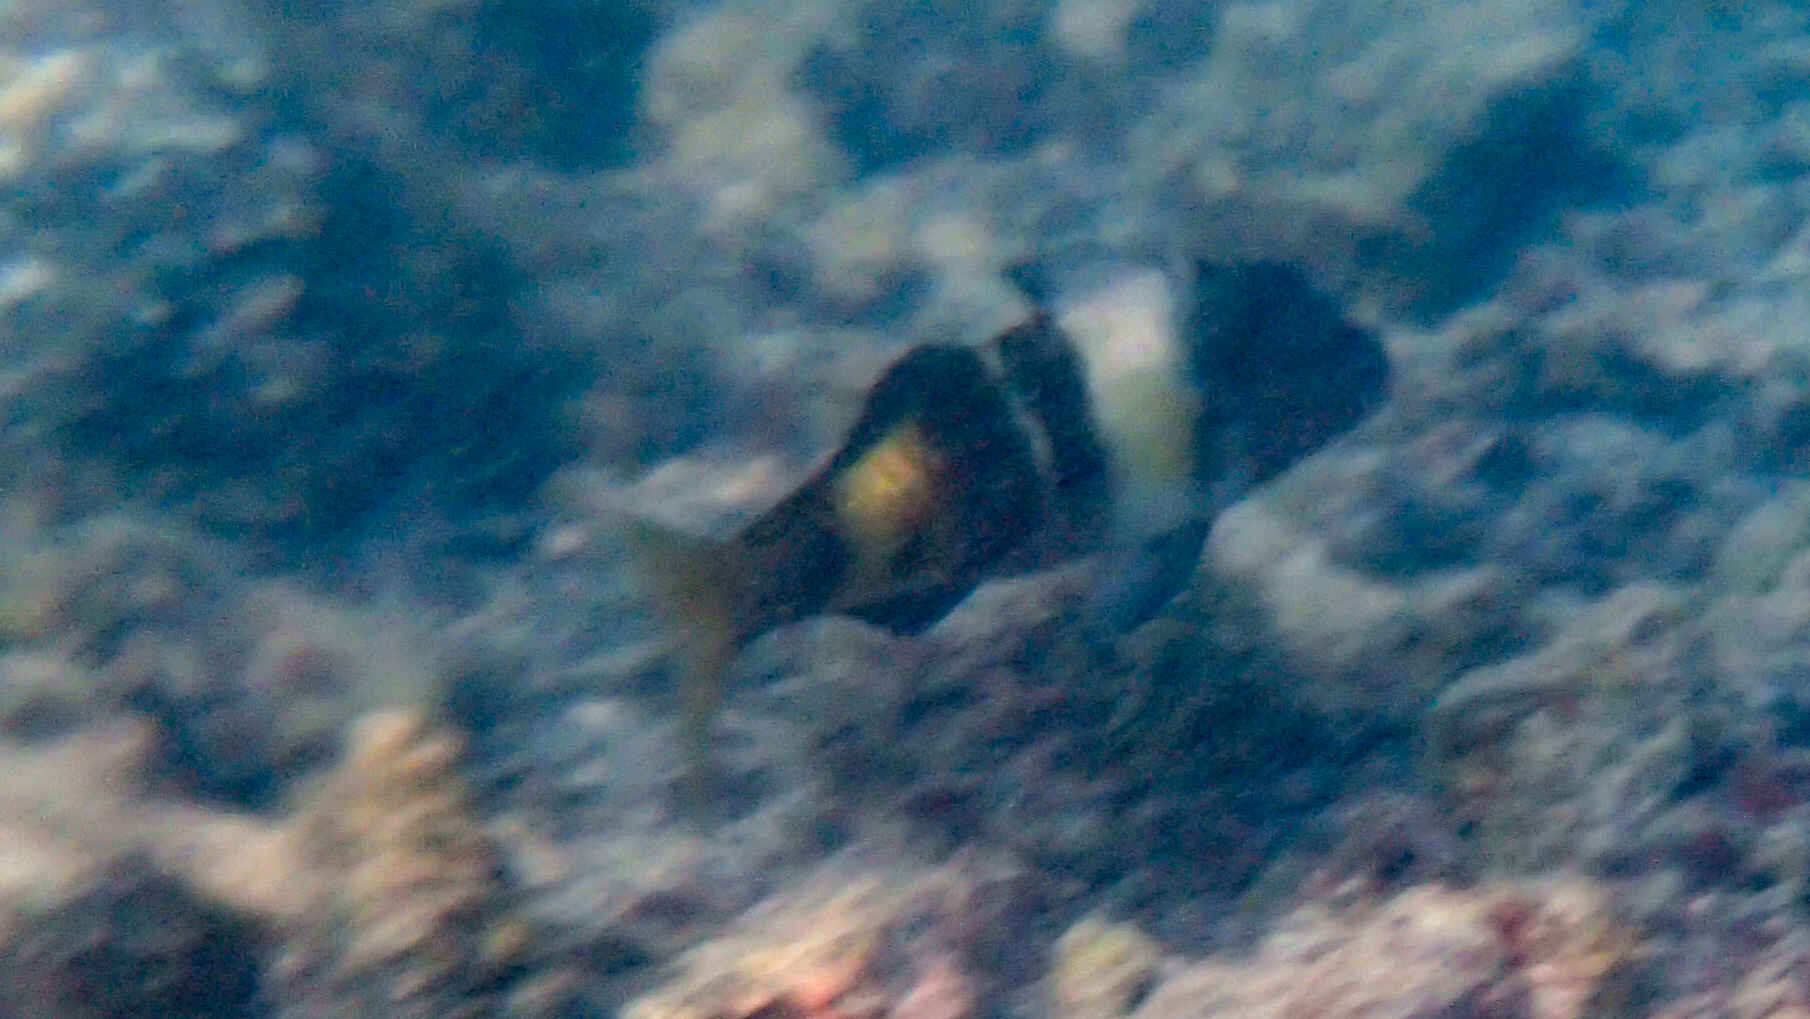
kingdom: Animalia
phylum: Chordata
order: Perciformes
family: Mullidae
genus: Parupeneus
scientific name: Parupeneus multifasciatus
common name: Manybar goatfish
